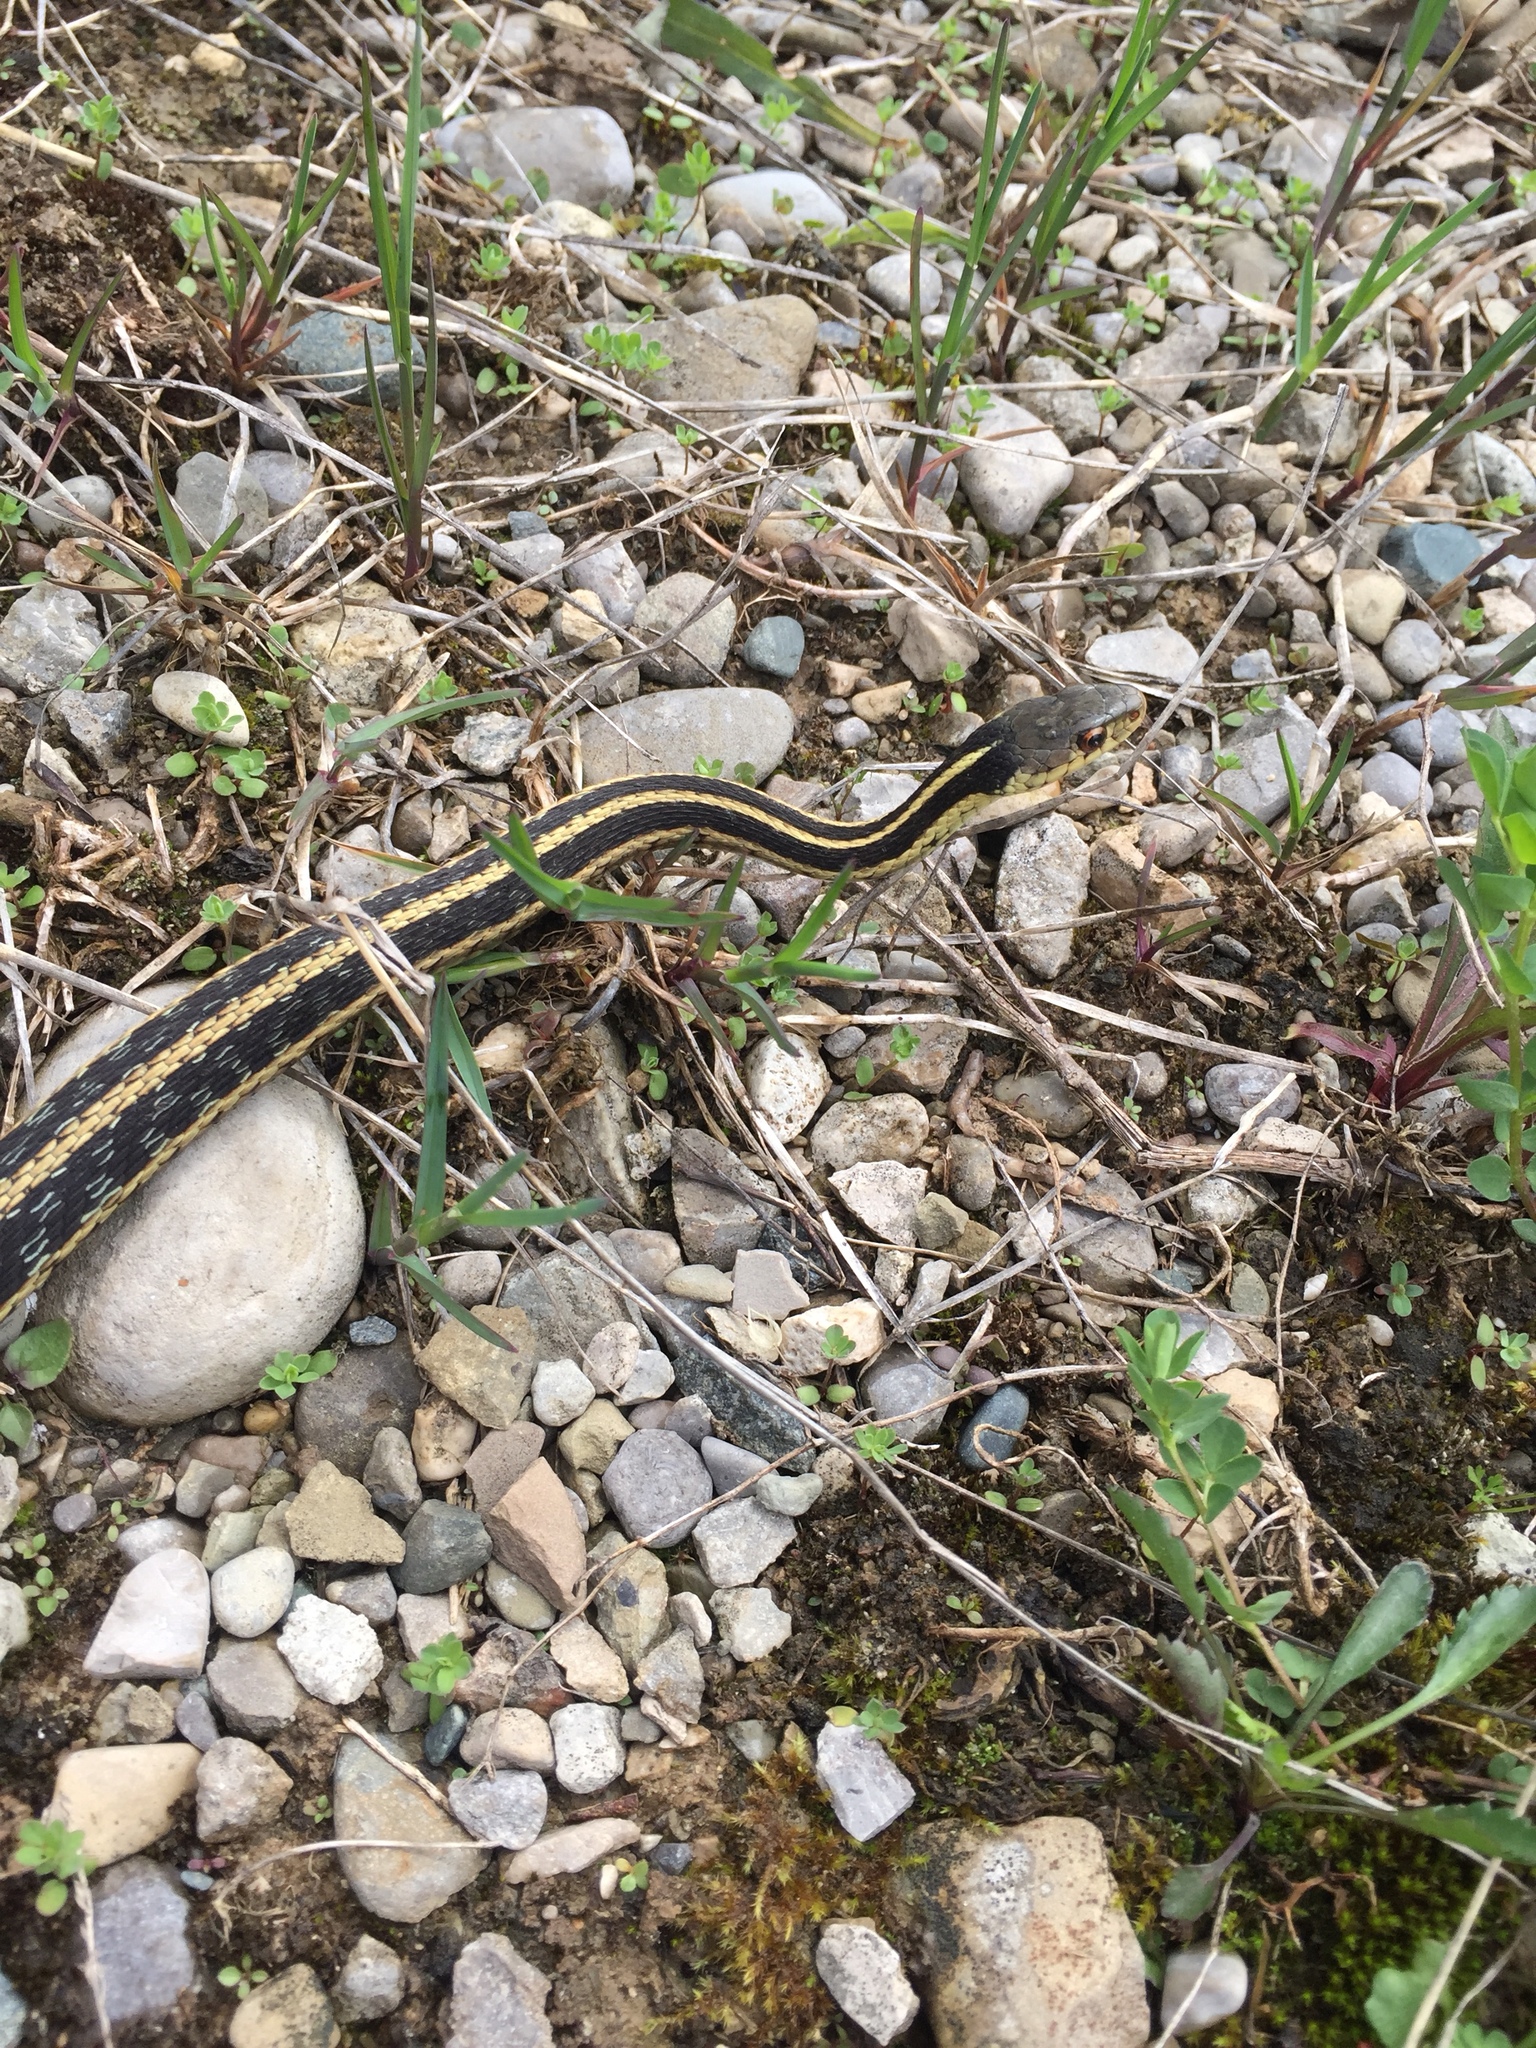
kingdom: Animalia
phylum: Chordata
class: Squamata
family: Colubridae
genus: Thamnophis
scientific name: Thamnophis sirtalis
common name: Common garter snake
